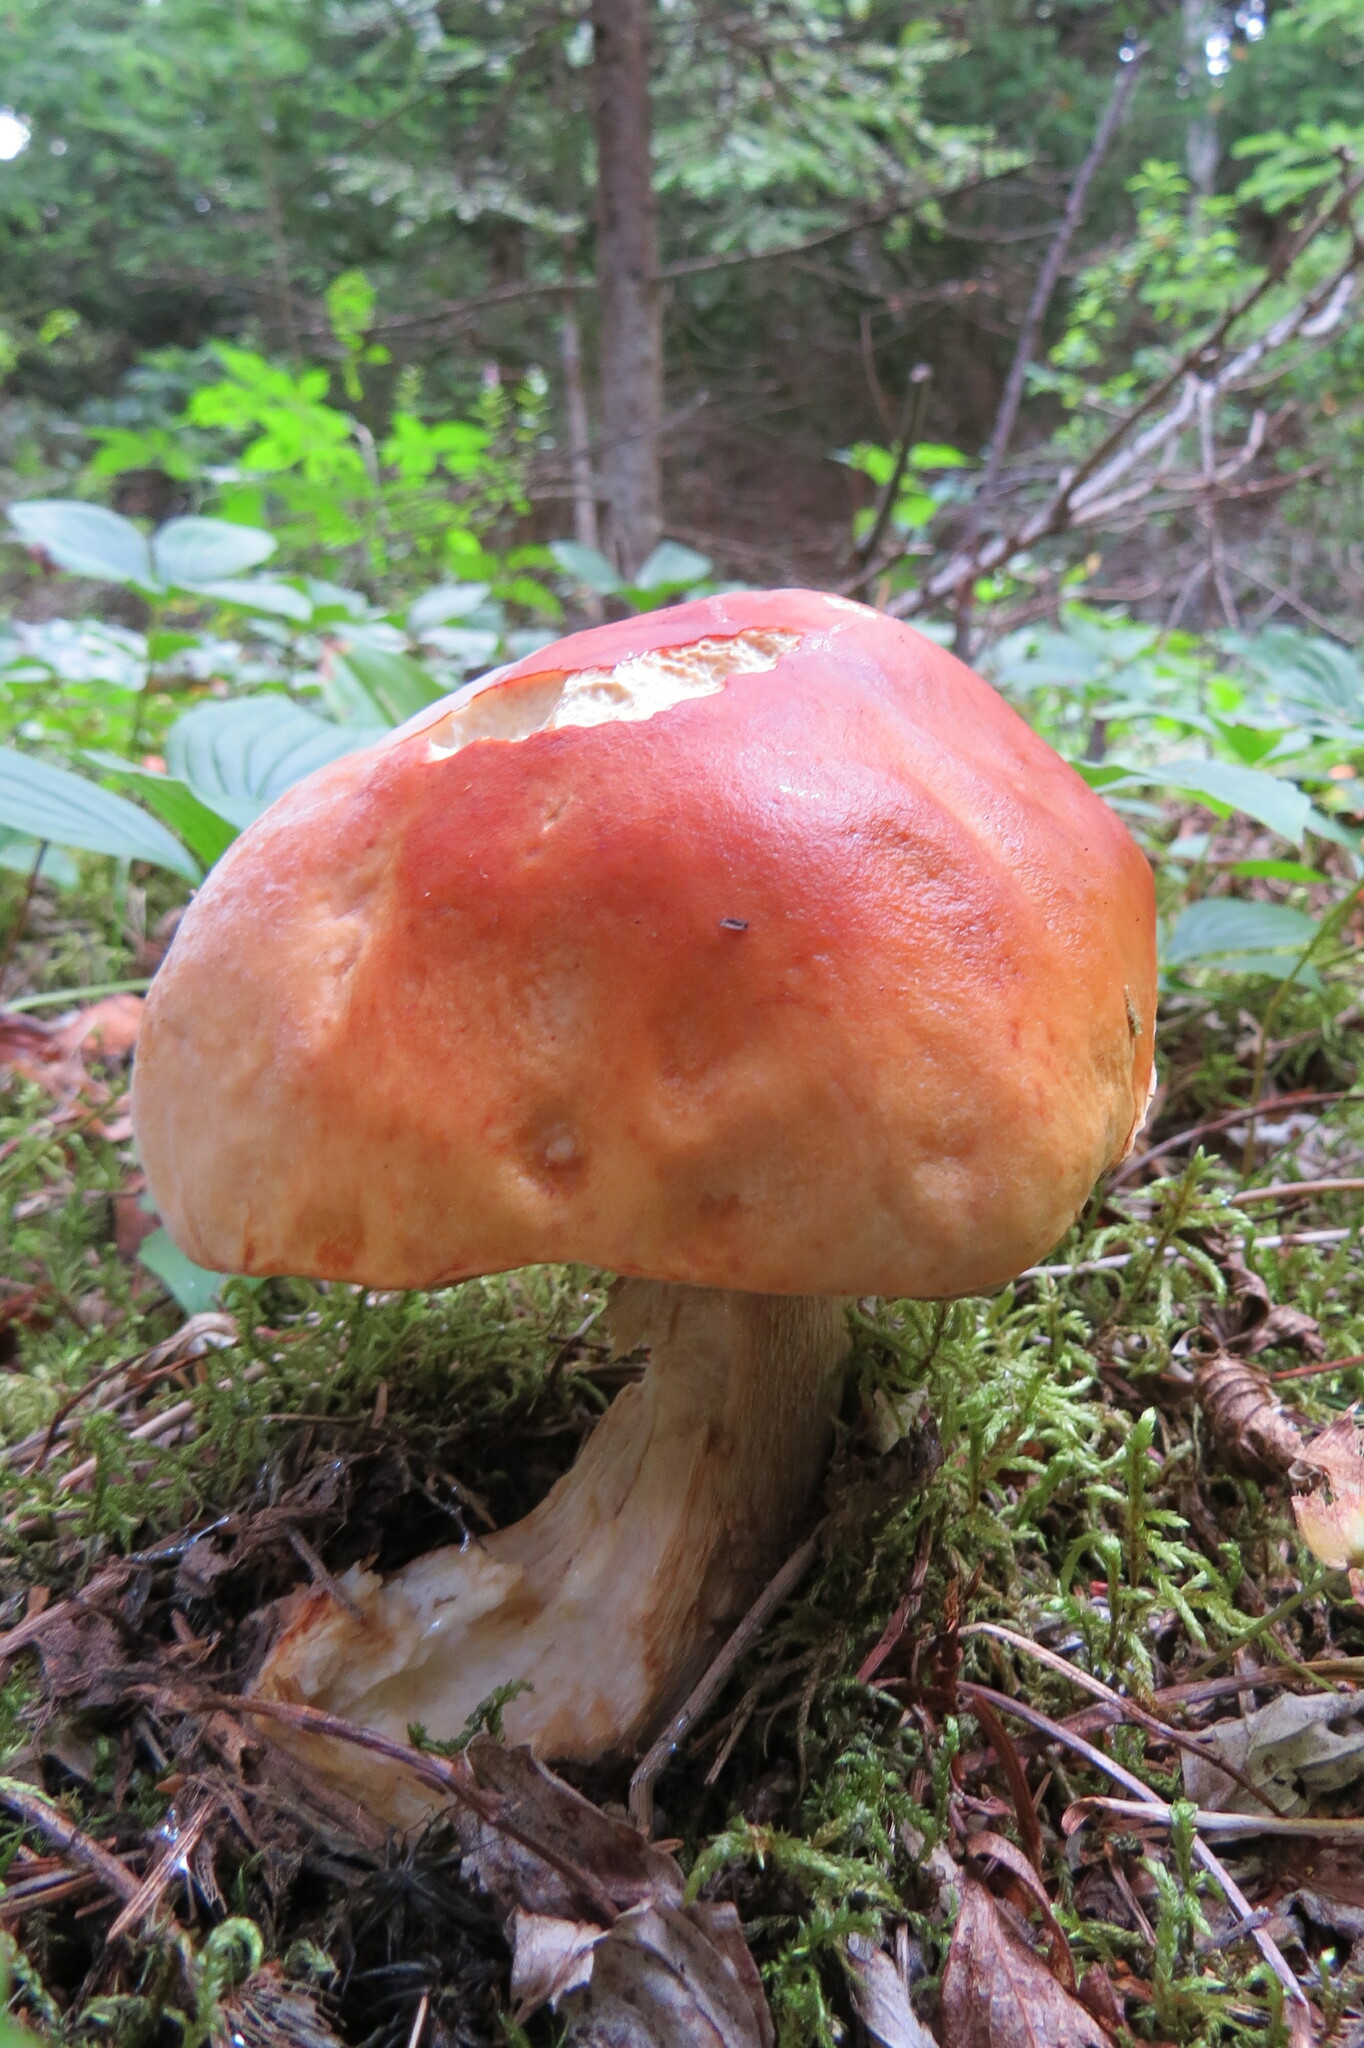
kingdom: Fungi
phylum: Basidiomycota
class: Agaricomycetes
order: Boletales
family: Boletaceae
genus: Boletus
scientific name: Boletus chippewaensis
